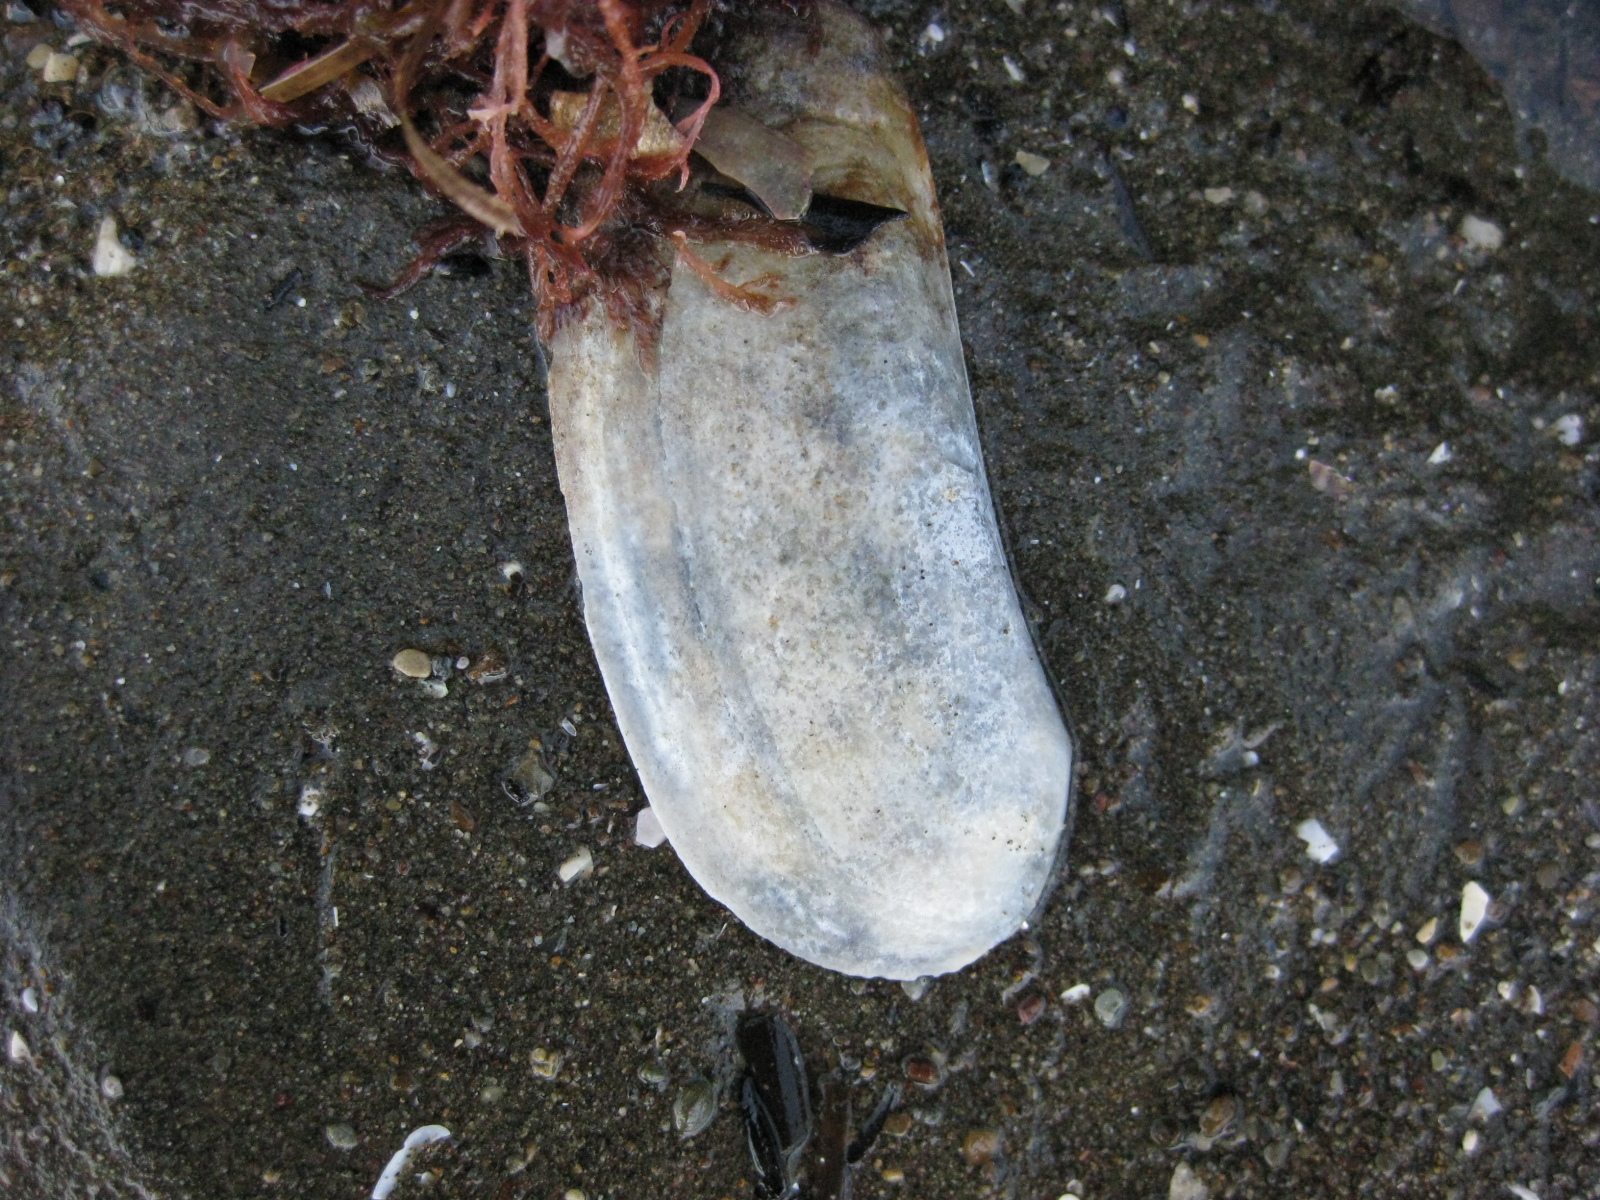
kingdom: Animalia
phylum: Mollusca
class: Bivalvia
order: Venerida
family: Mactridae
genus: Zenatia
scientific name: Zenatia acinaces
